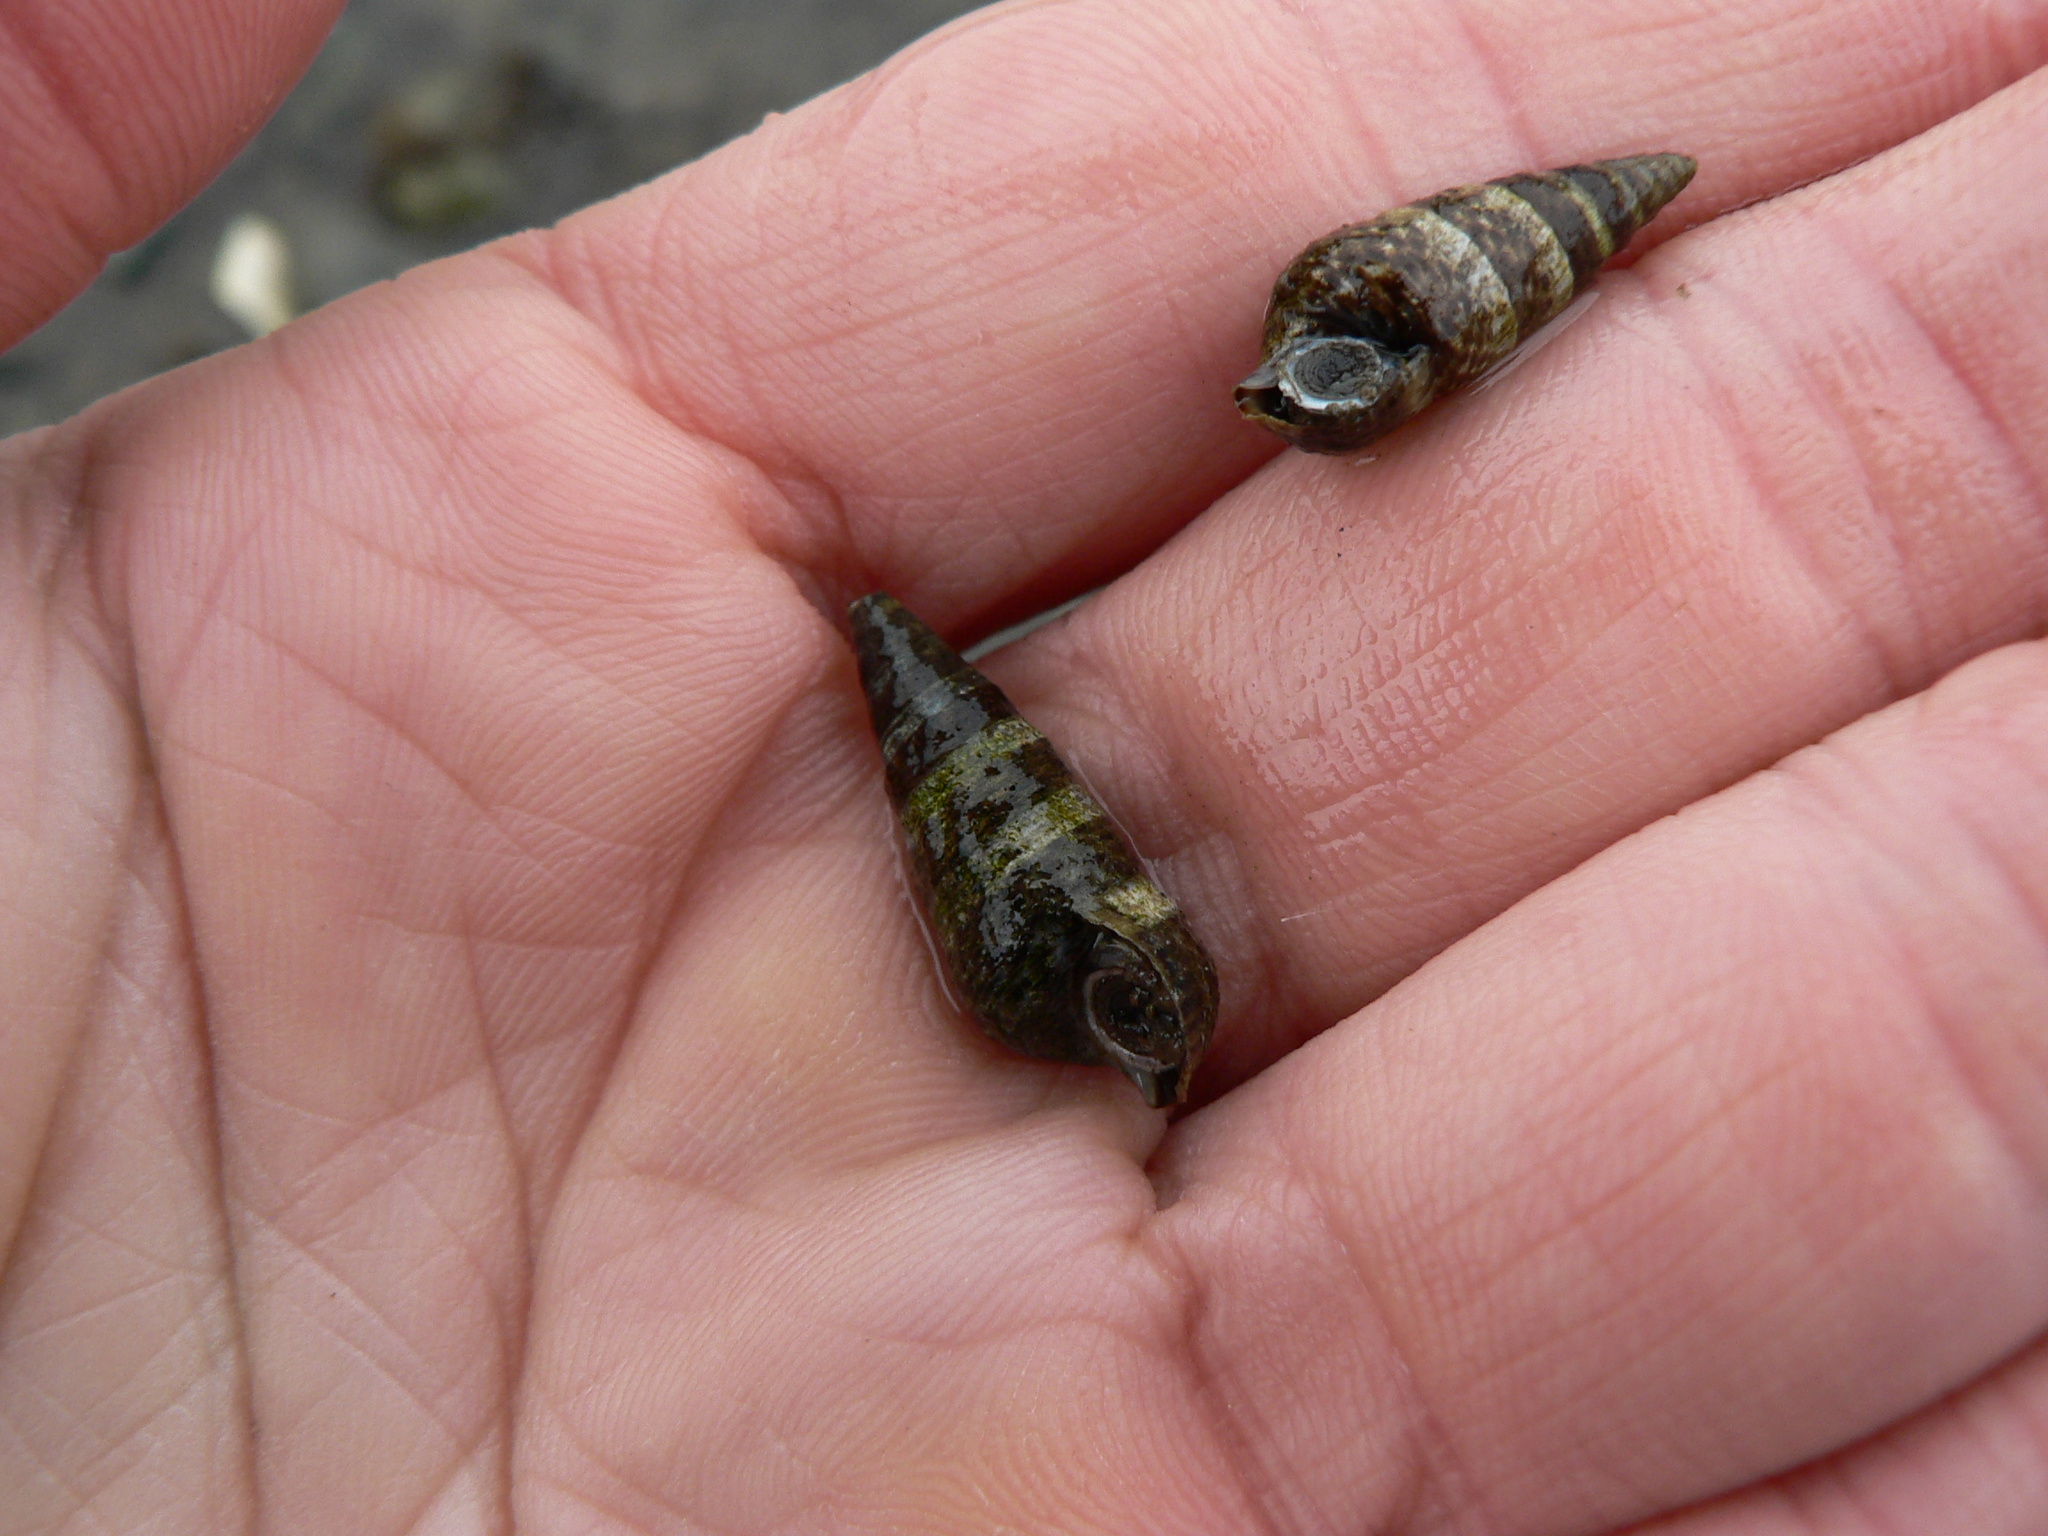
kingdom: Animalia
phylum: Mollusca
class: Gastropoda
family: Batillariidae
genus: Batillaria
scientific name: Batillaria attramentaria
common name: Japanese false cerith
